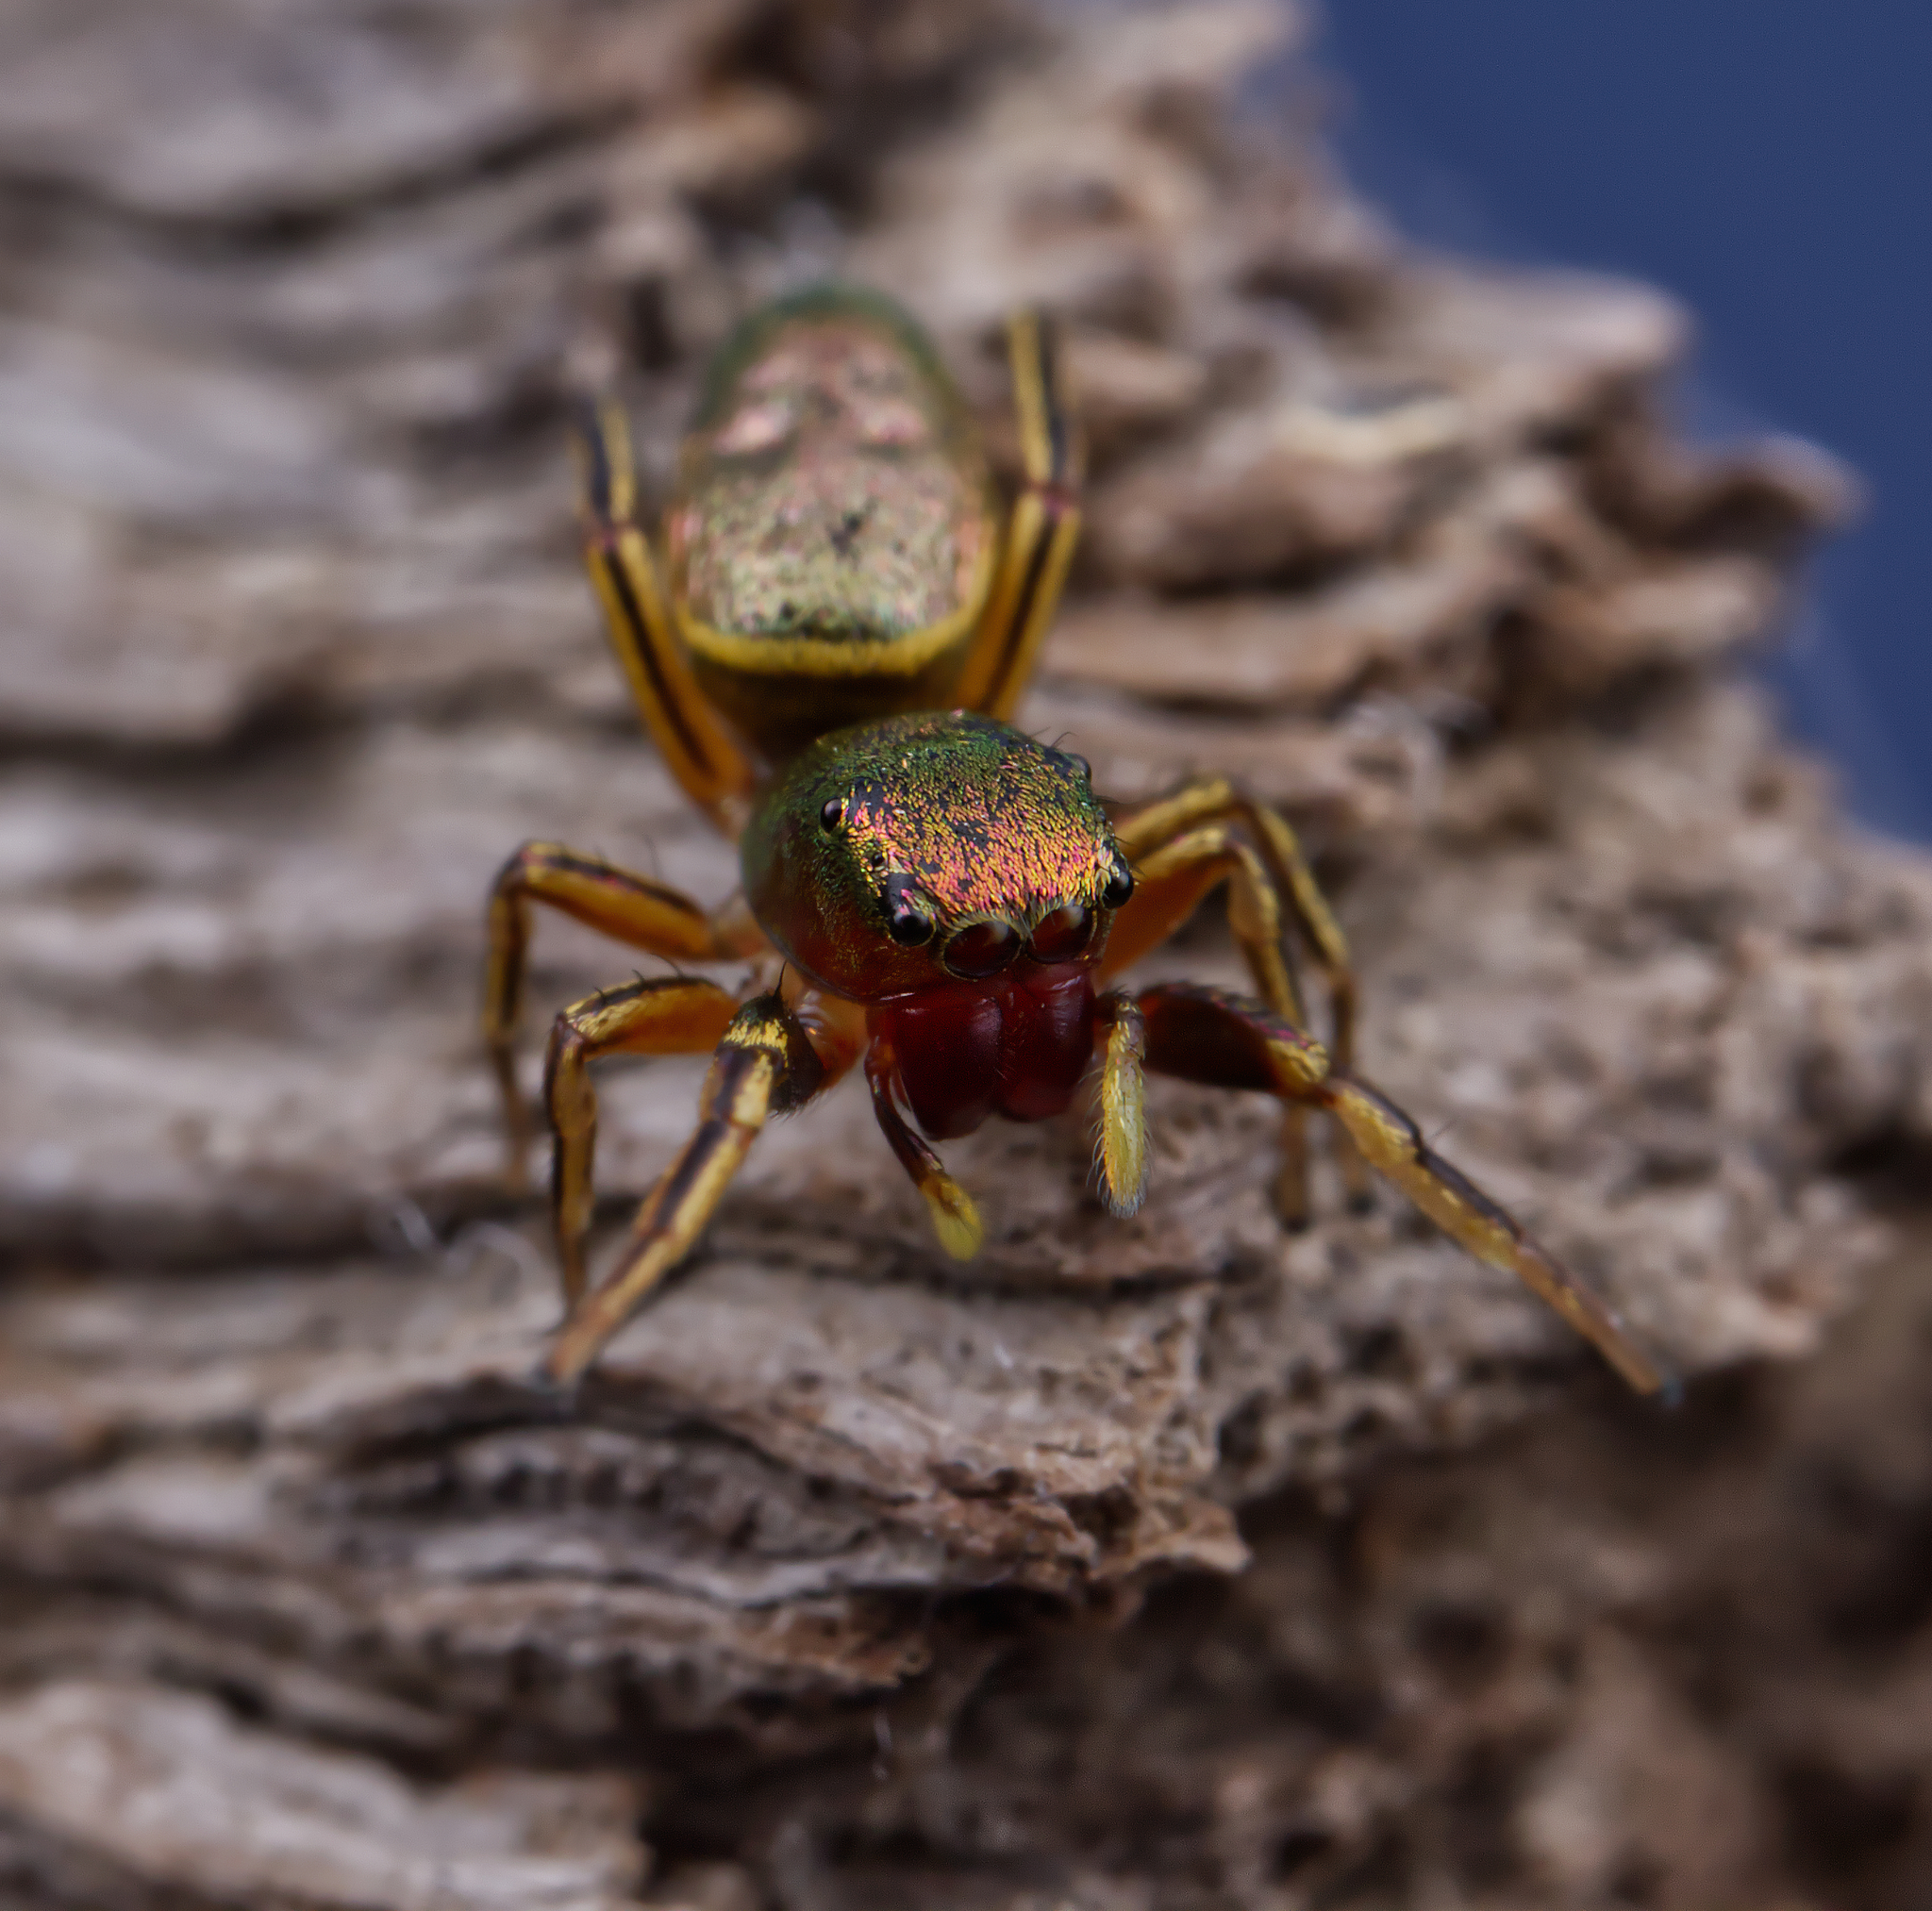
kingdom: Animalia
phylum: Arthropoda
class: Arachnida
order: Araneae
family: Salticidae
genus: Tutelina
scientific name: Tutelina elegans
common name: Thin-spined jumping spider
